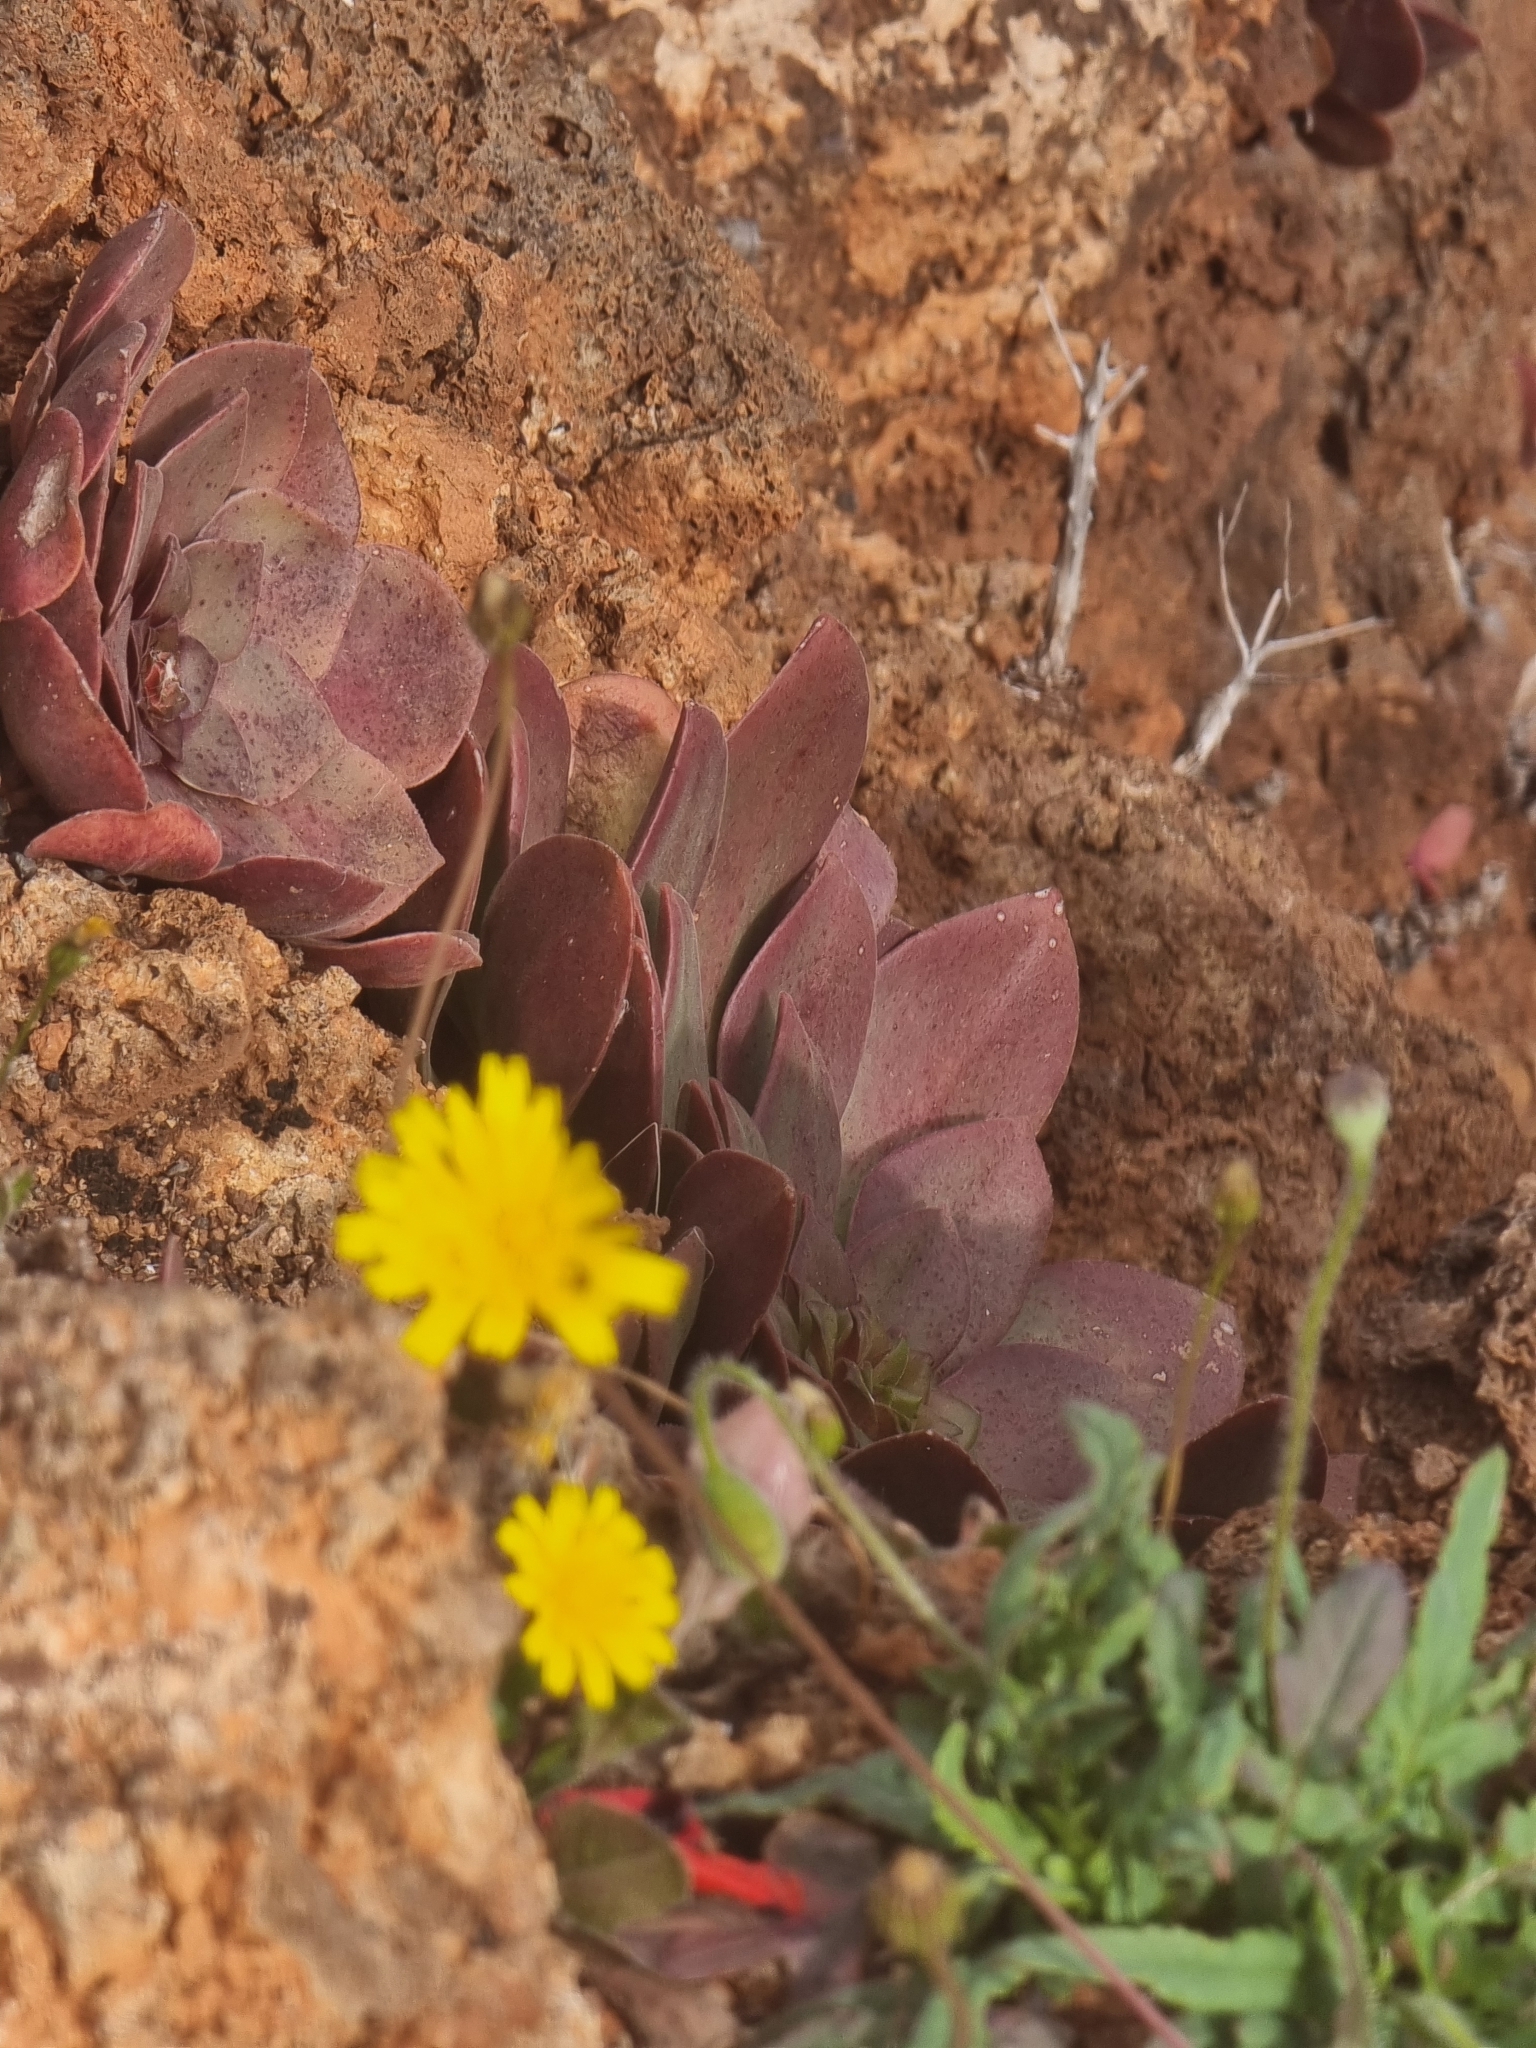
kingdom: Plantae
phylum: Tracheophyta
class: Magnoliopsida
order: Saxifragales
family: Crassulaceae
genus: Aeonium
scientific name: Aeonium glandulosum
